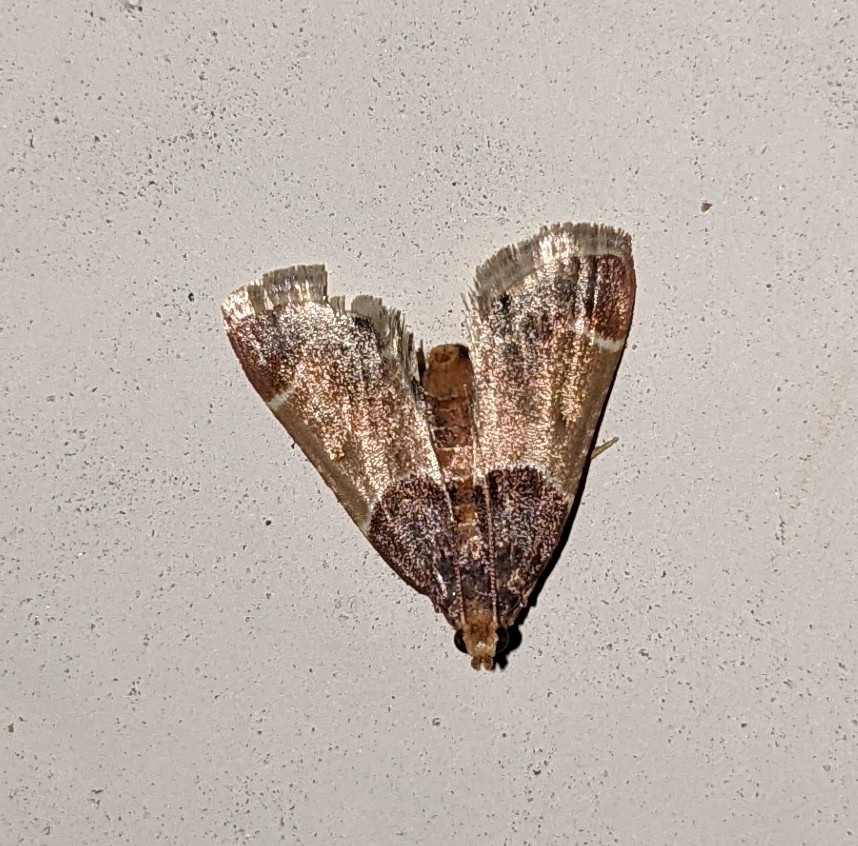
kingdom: Animalia
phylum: Arthropoda
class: Insecta
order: Lepidoptera
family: Pyralidae
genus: Pyralis
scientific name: Pyralis farinalis
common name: Meal moth
